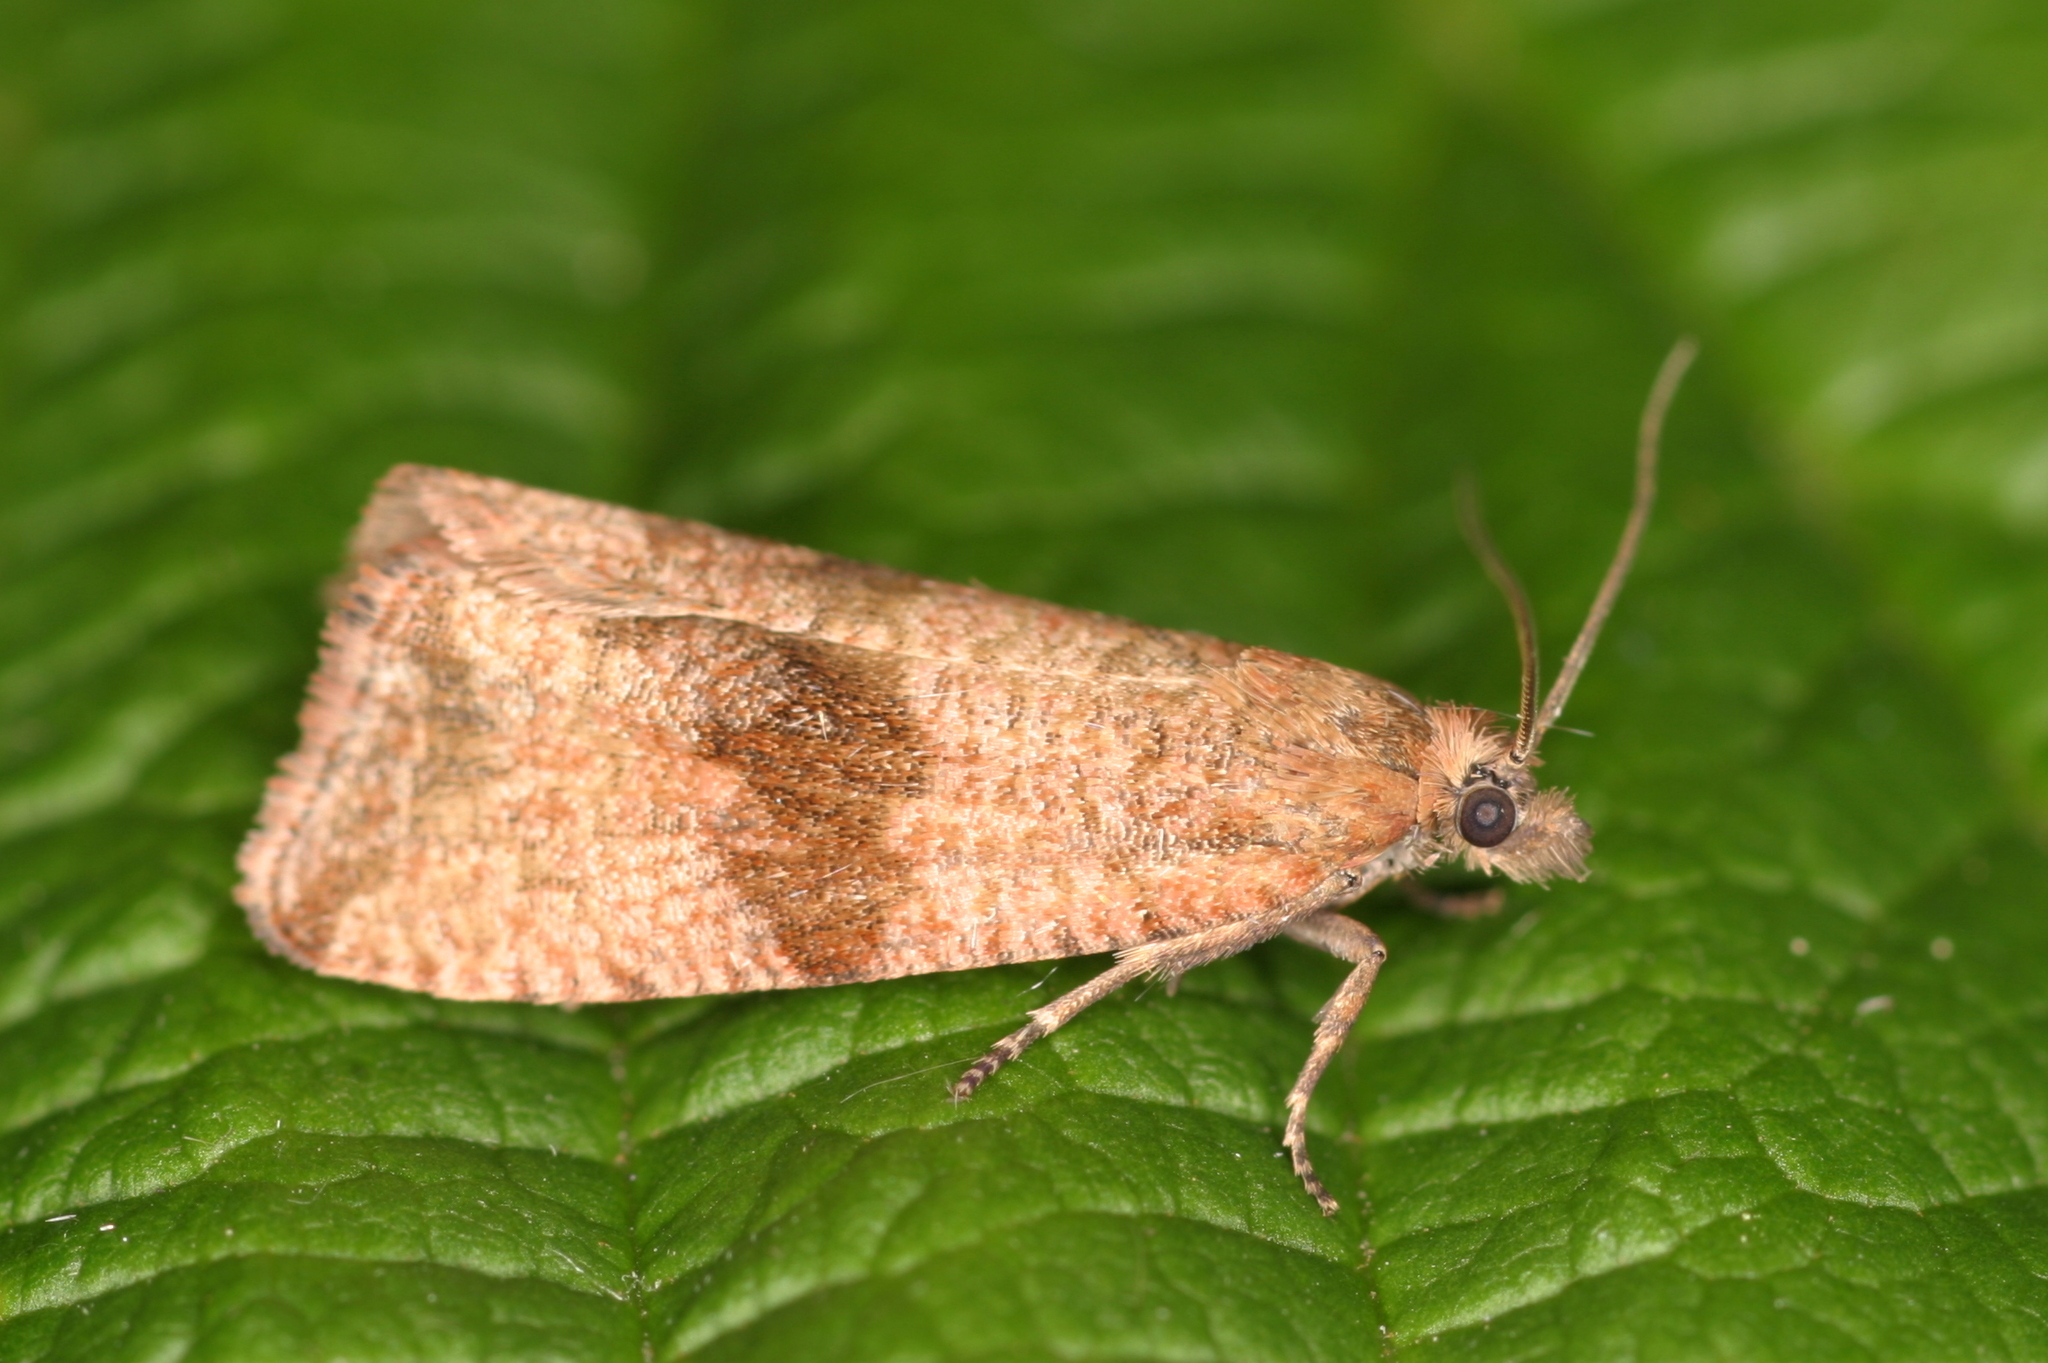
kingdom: Animalia
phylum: Arthropoda
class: Insecta
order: Lepidoptera
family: Tortricidae
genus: Celypha
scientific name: Celypha striana
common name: Barred marble
